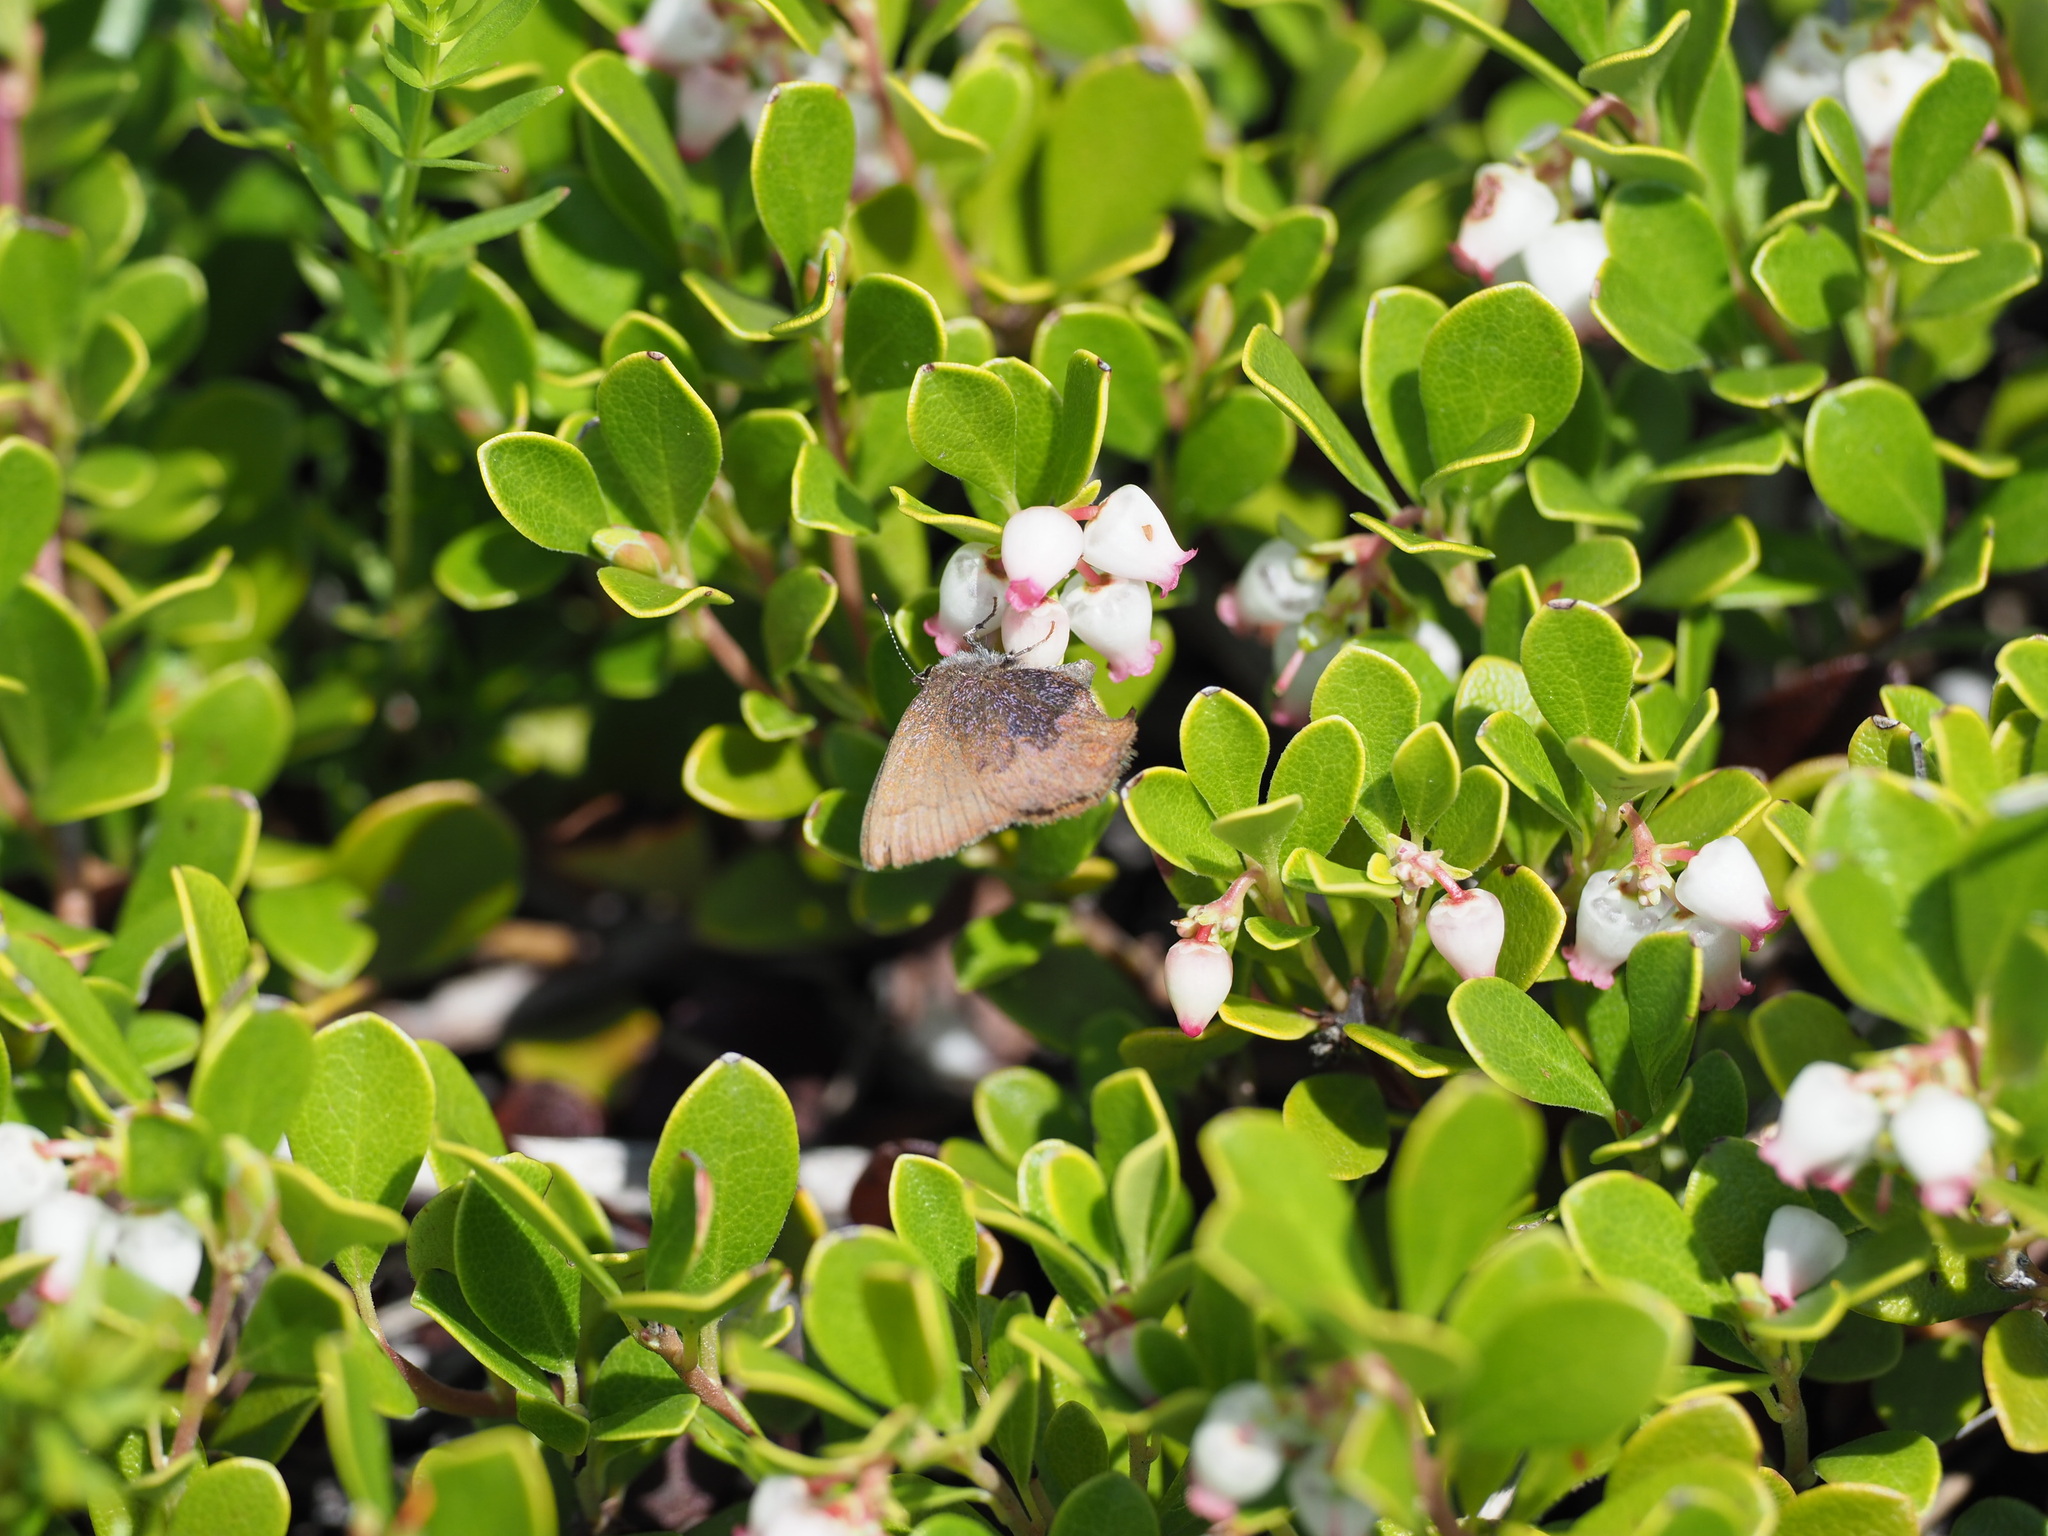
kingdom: Animalia
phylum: Arthropoda
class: Insecta
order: Lepidoptera
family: Lycaenidae
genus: Incisalia
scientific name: Incisalia irioides
